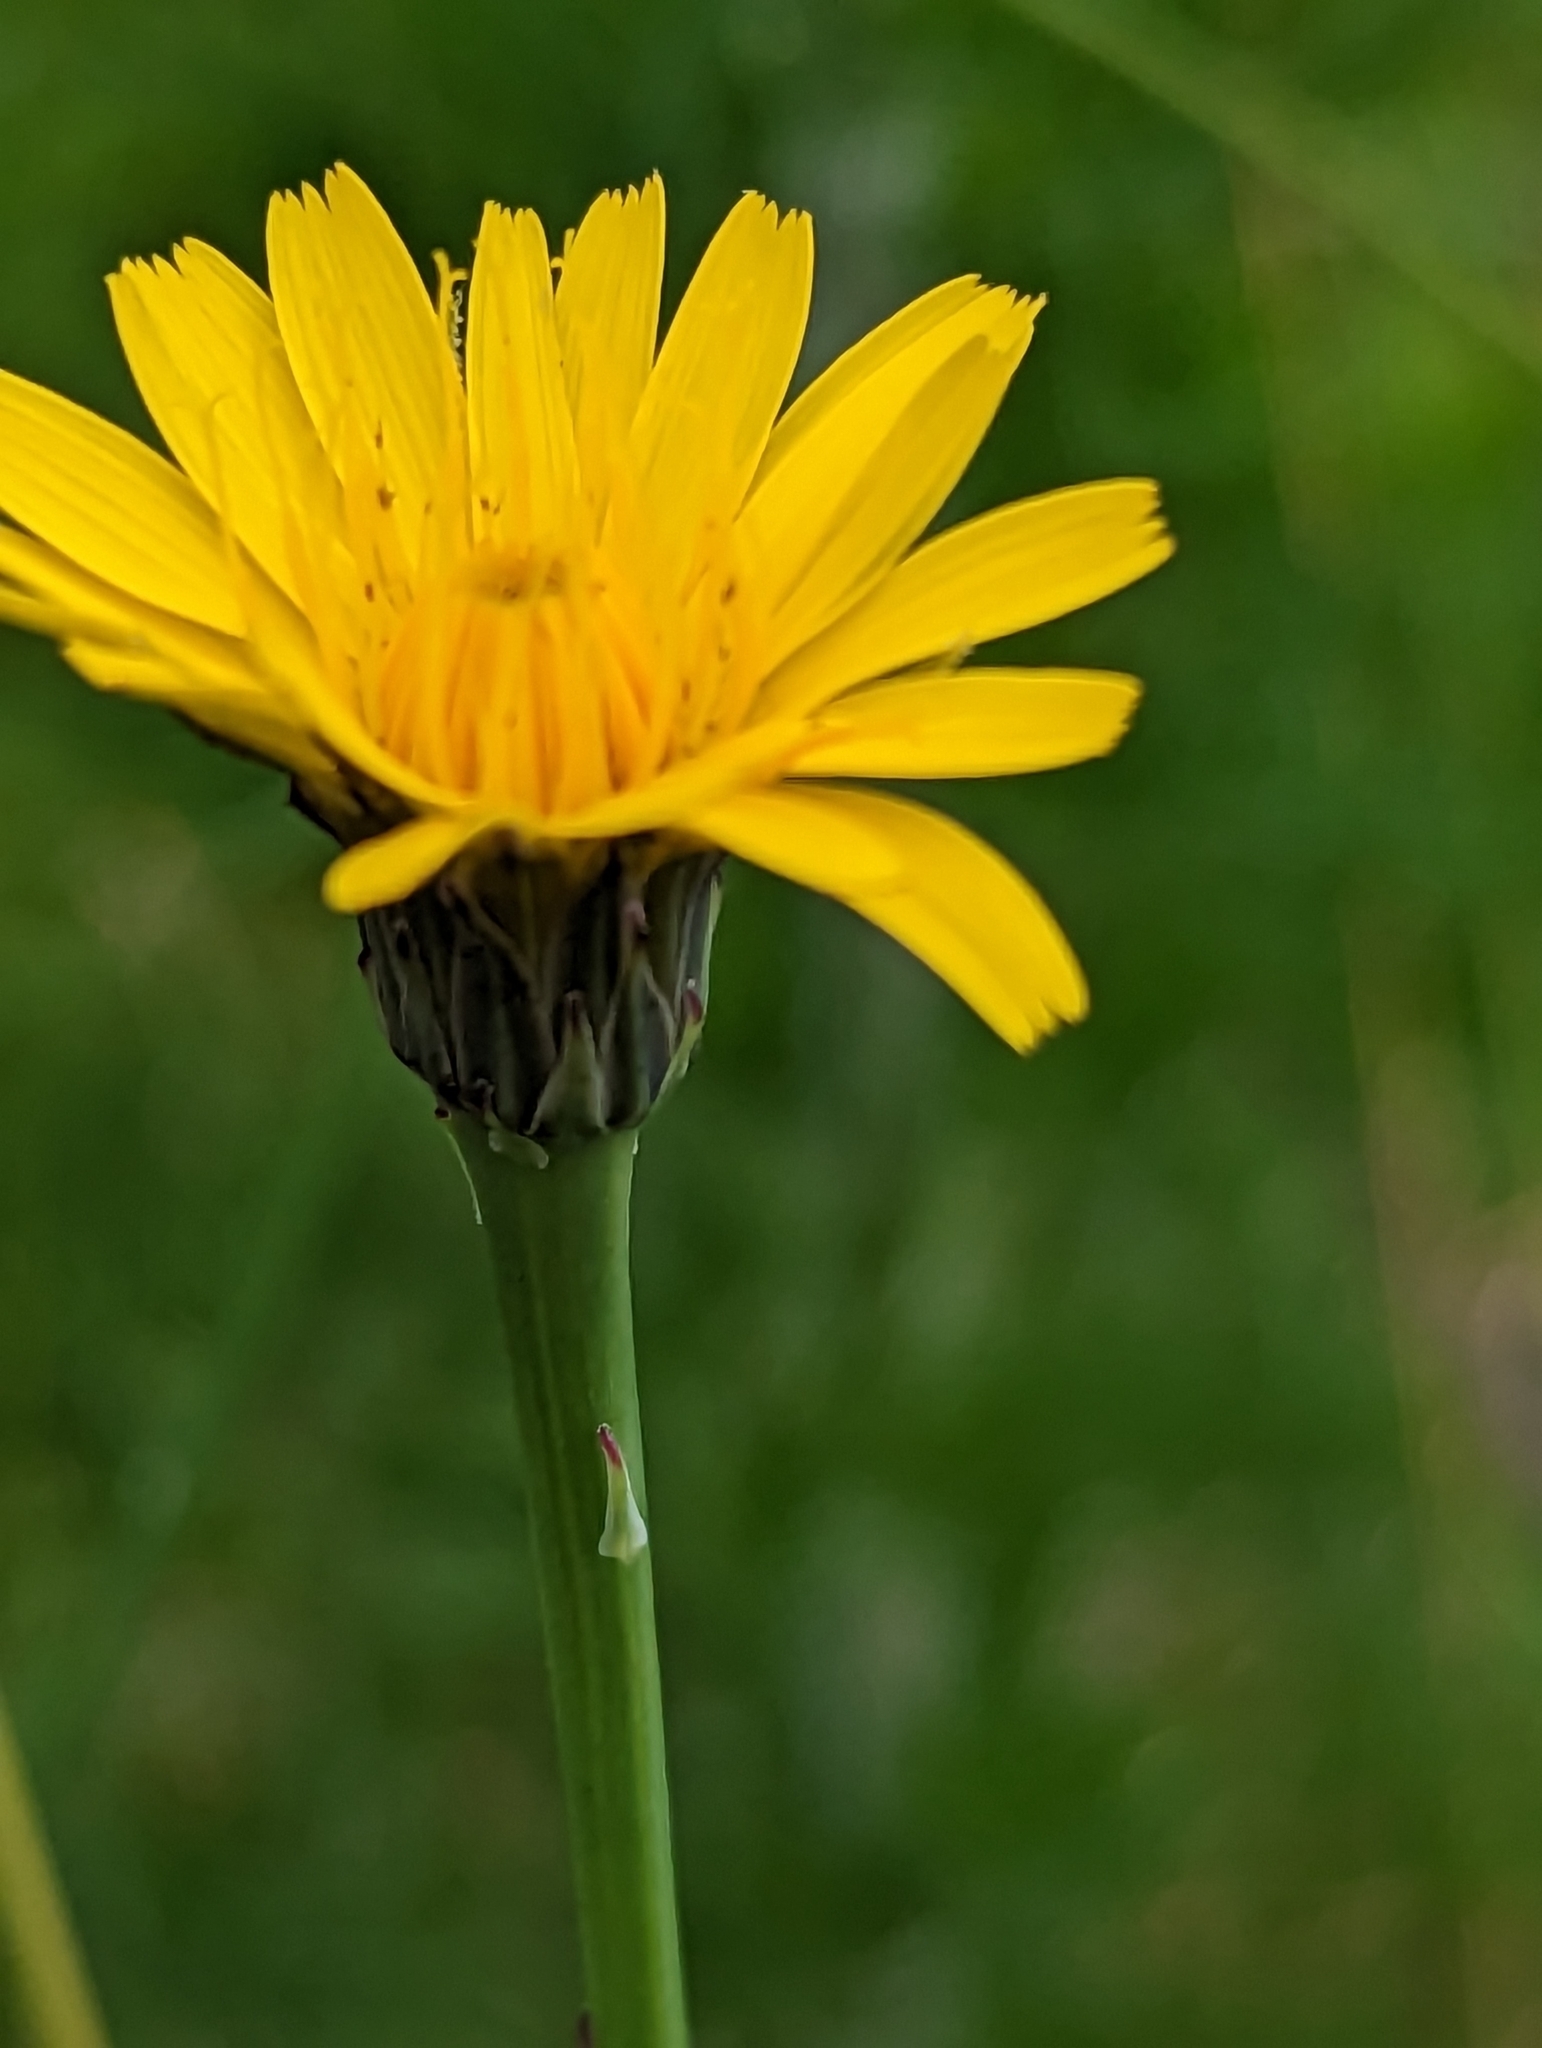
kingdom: Plantae
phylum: Tracheophyta
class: Magnoliopsida
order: Asterales
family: Asteraceae
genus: Hypochaeris
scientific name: Hypochaeris radicata
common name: Flatweed
